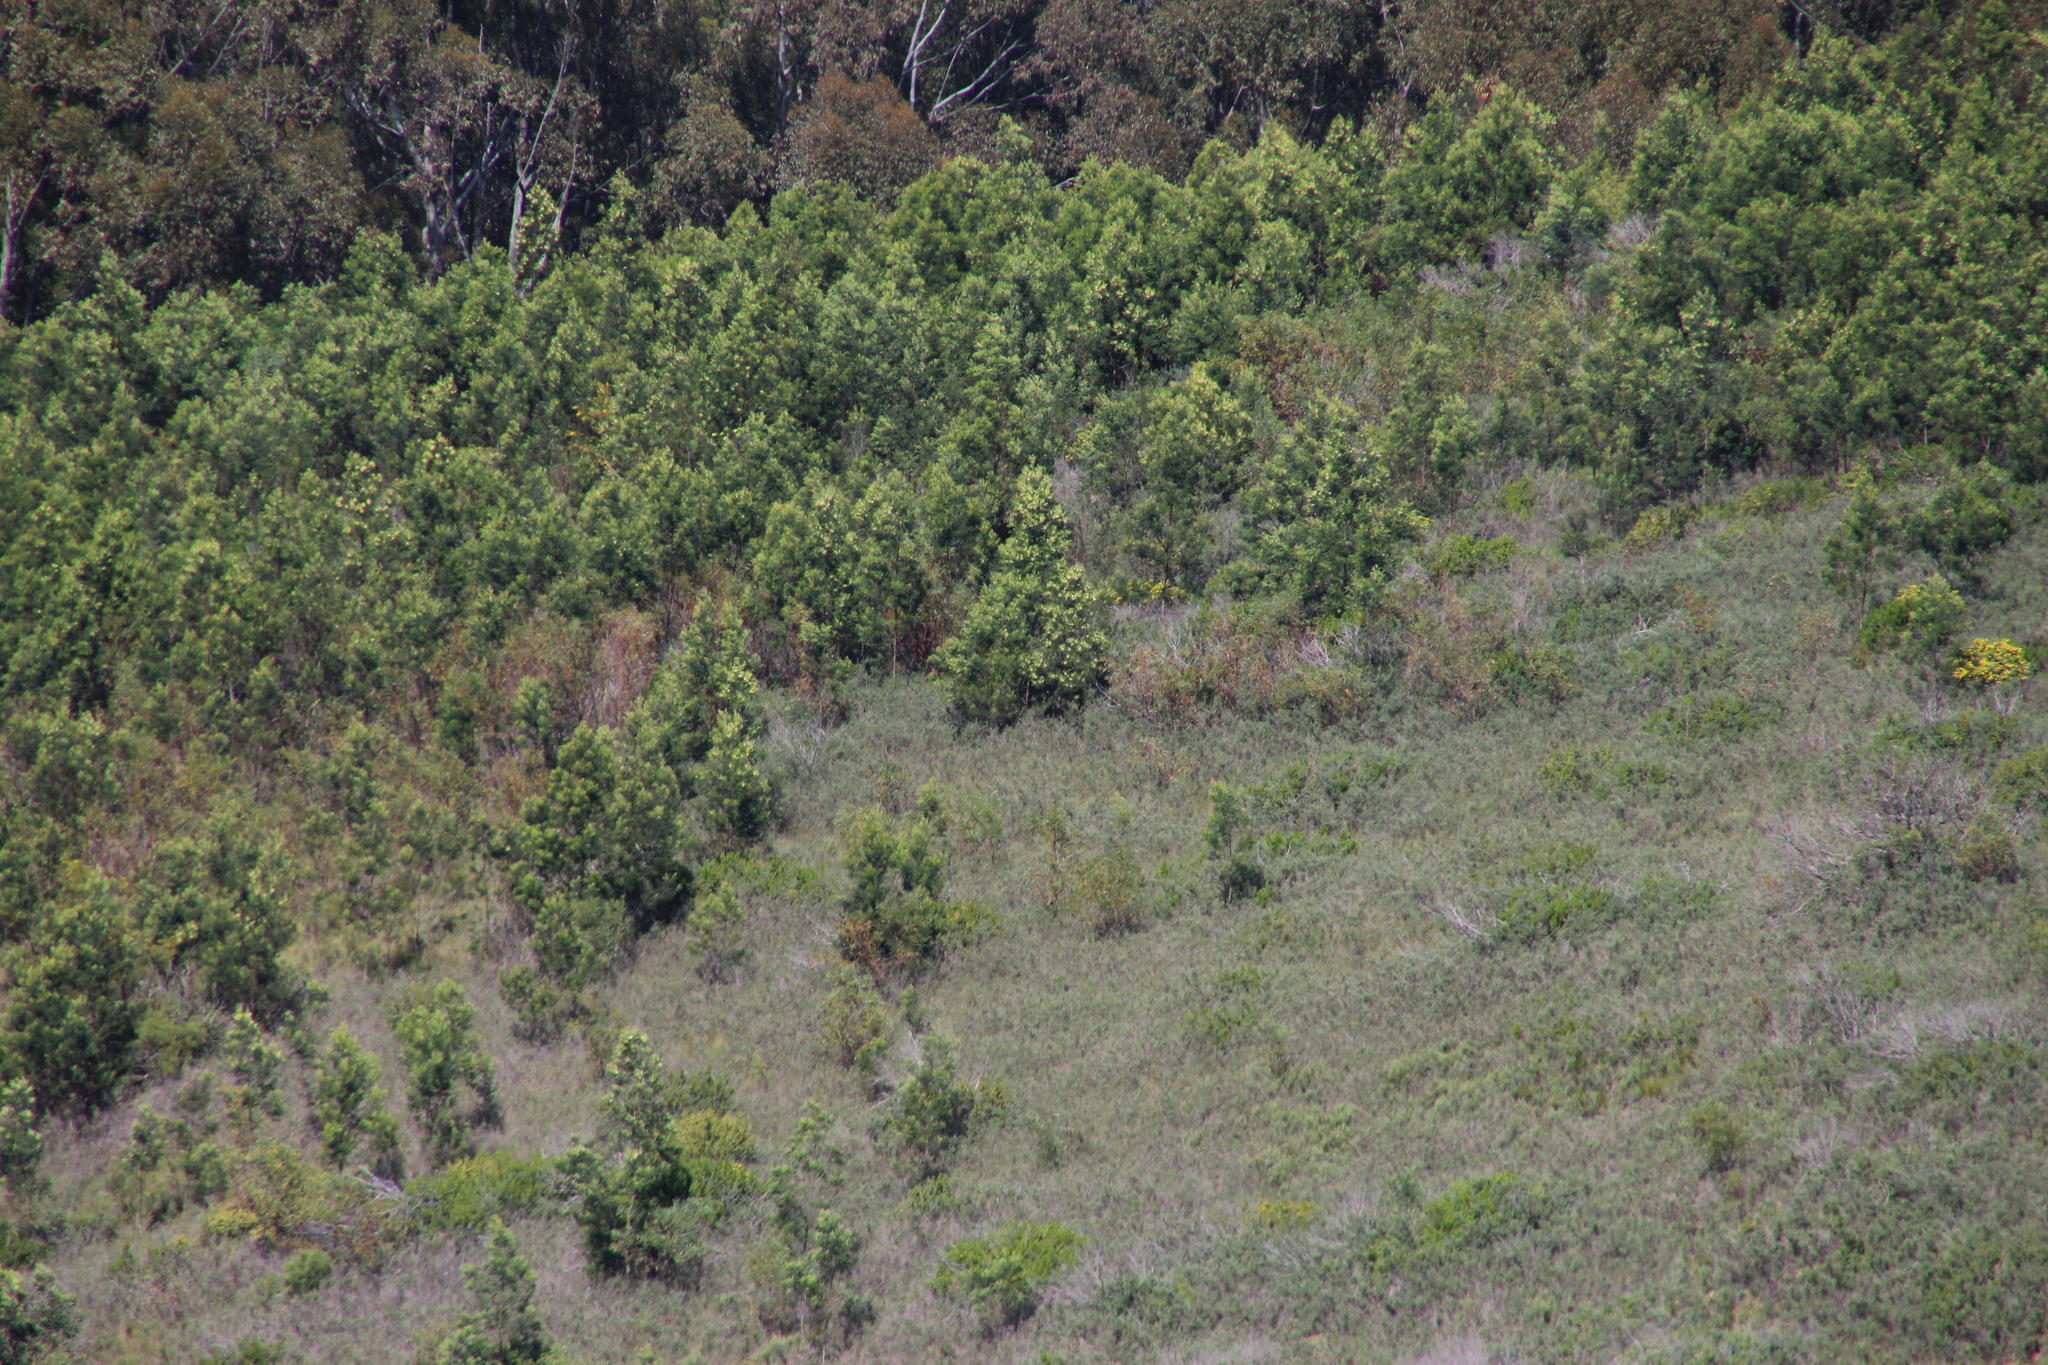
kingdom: Plantae
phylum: Tracheophyta
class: Magnoliopsida
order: Fabales
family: Fabaceae
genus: Acacia
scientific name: Acacia mearnsii
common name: Black wattle
